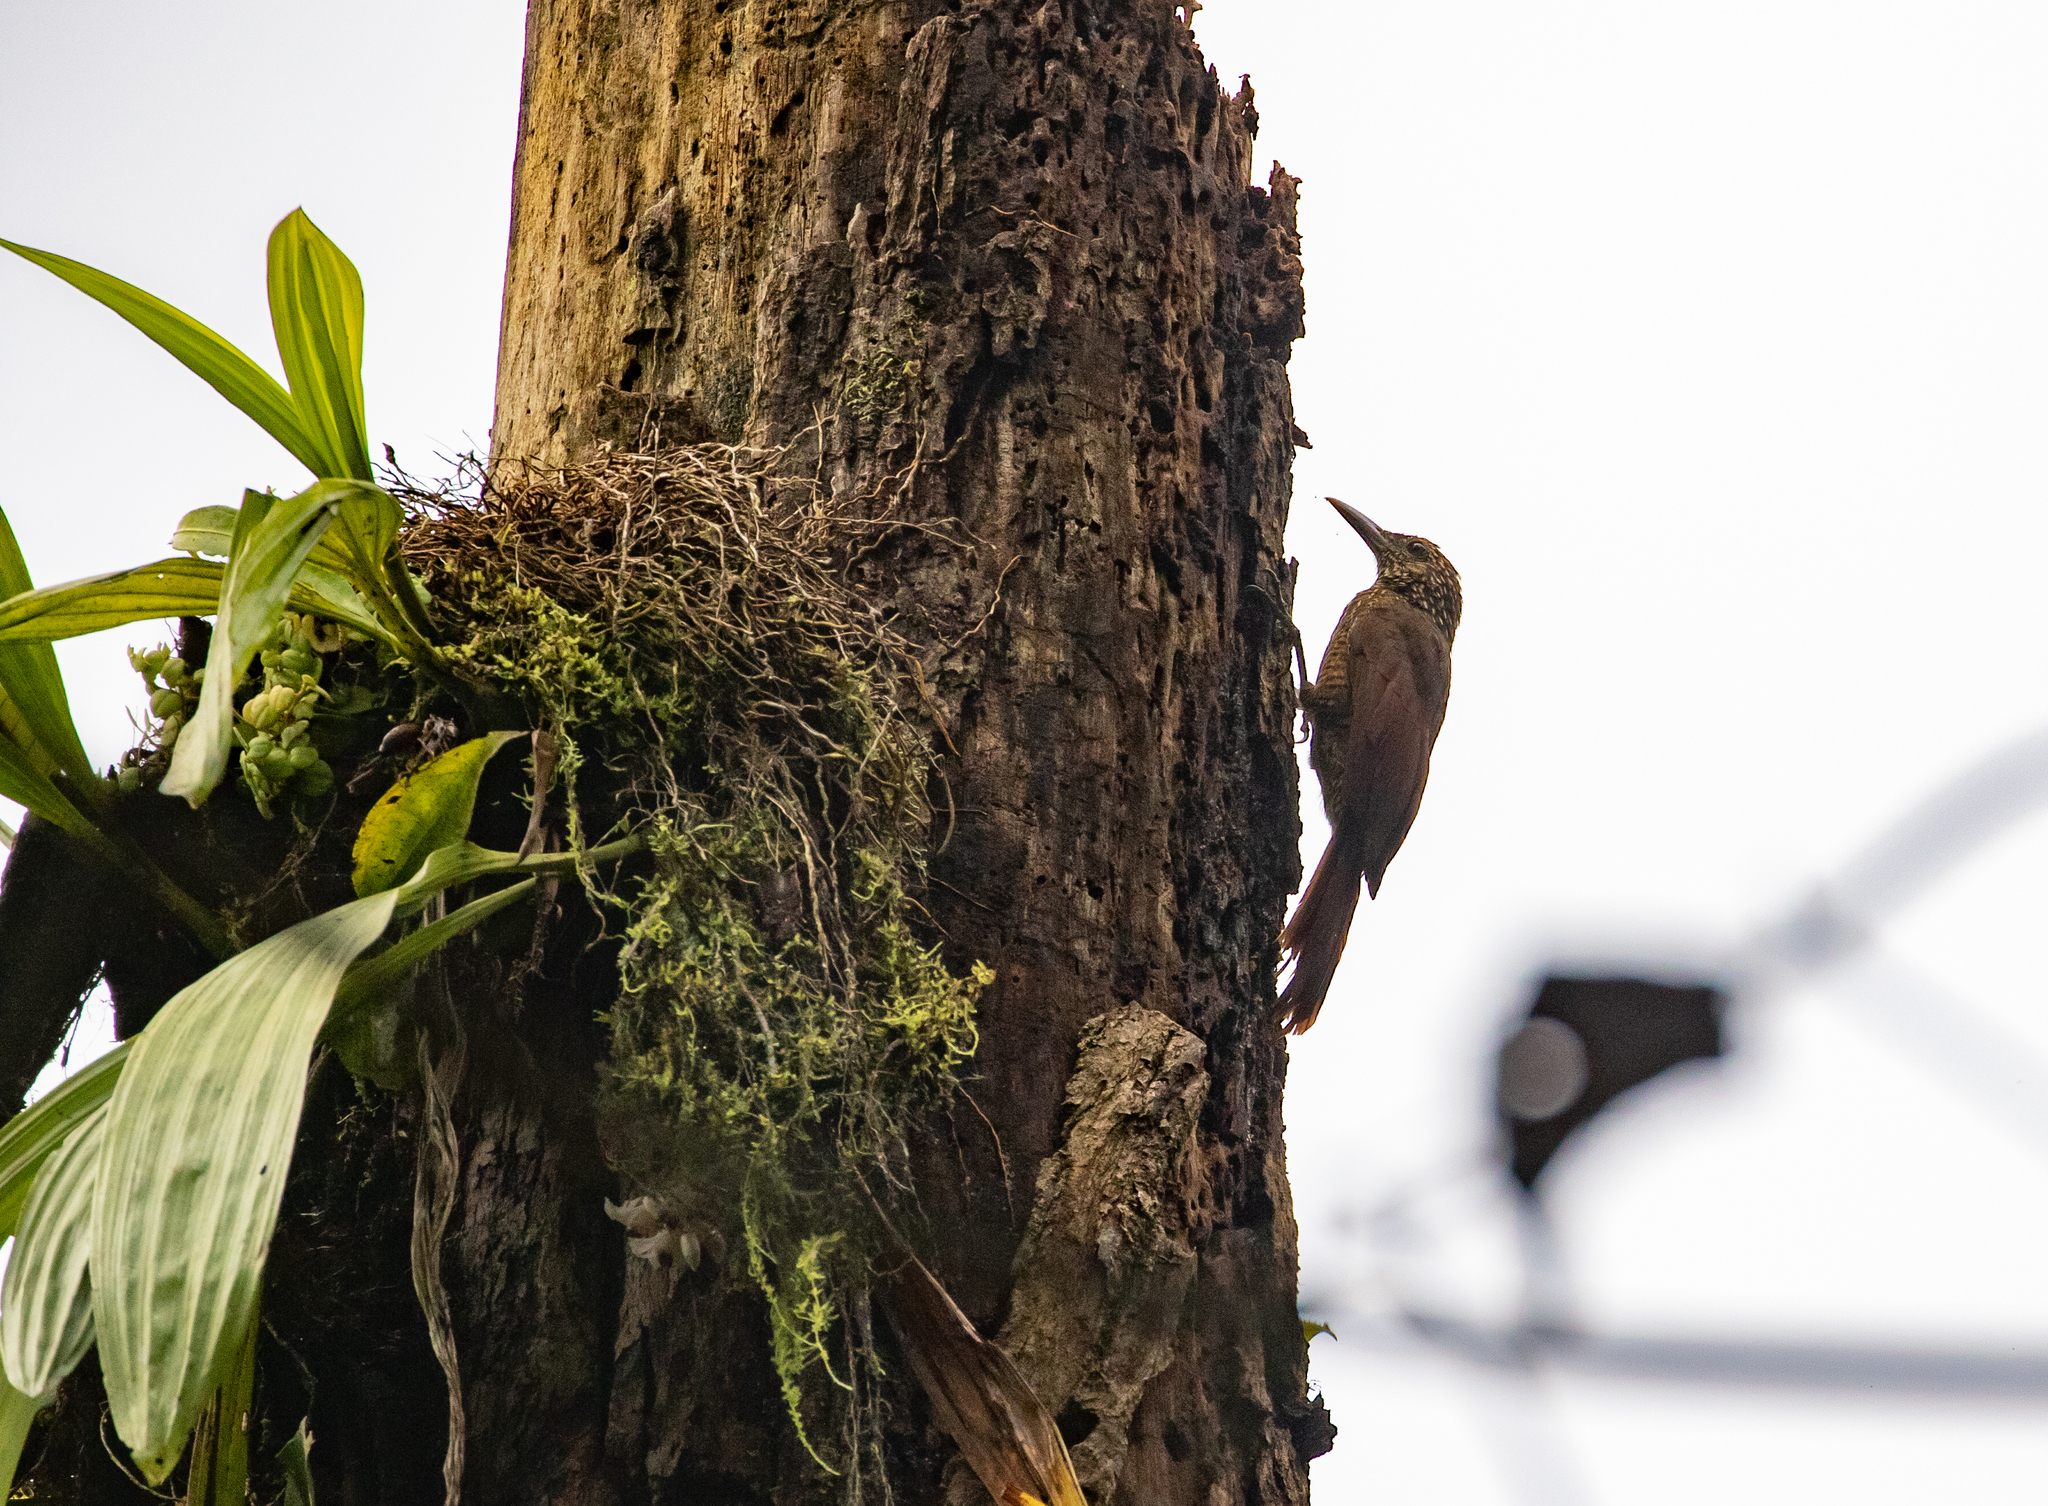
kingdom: Animalia
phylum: Chordata
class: Aves
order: Passeriformes
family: Furnariidae
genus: Dendrocolaptes
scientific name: Dendrocolaptes picumnus
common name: Black-banded woodcreeper
